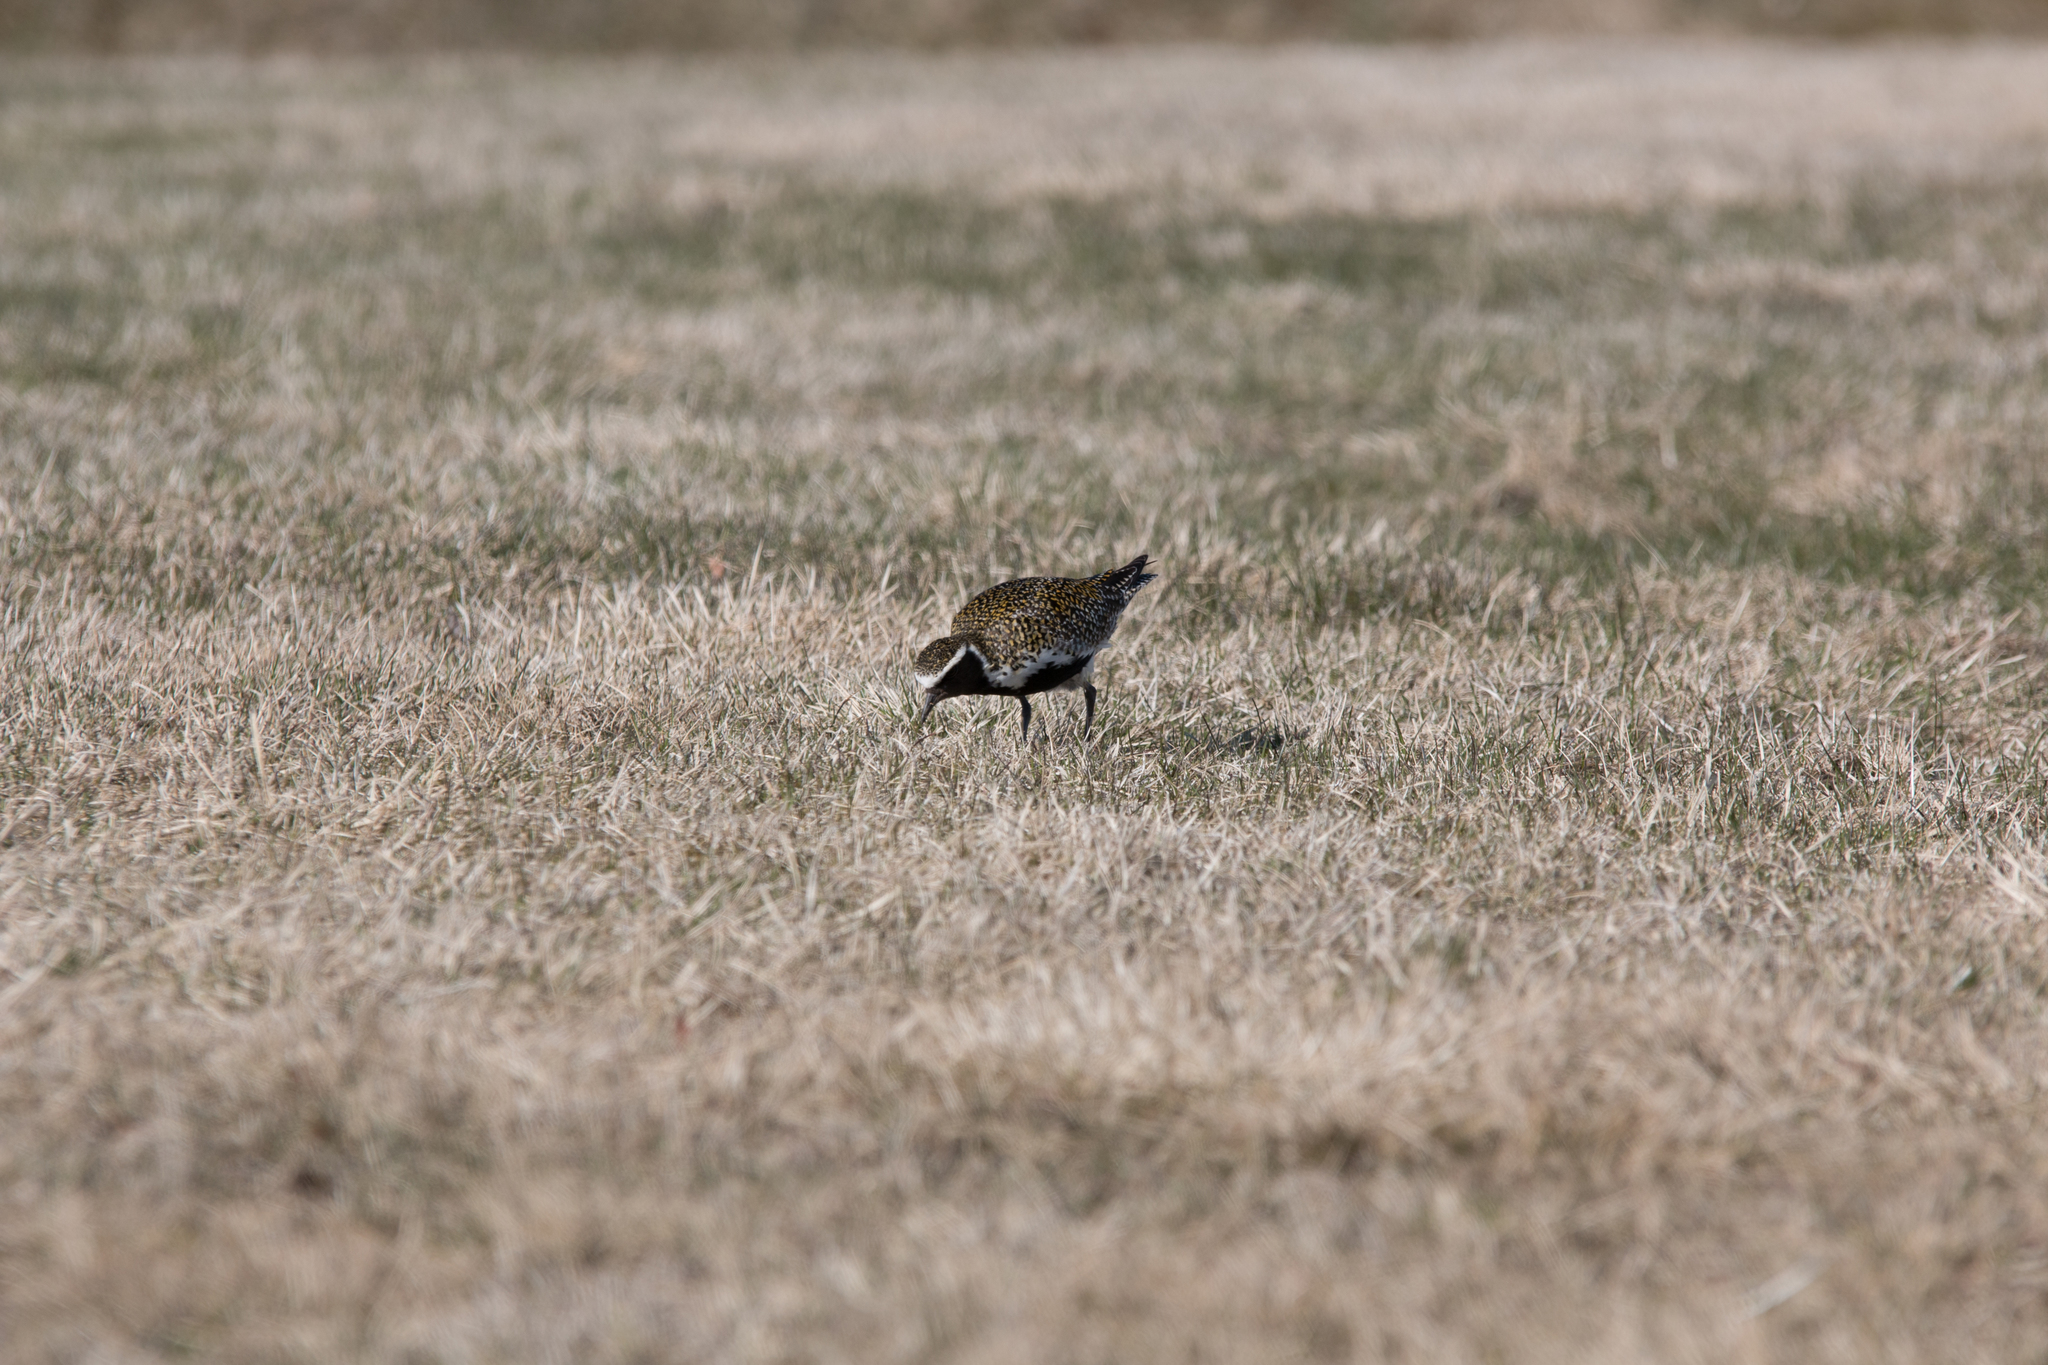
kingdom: Animalia
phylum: Chordata
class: Aves
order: Charadriiformes
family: Charadriidae
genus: Pluvialis
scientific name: Pluvialis apricaria
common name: European golden plover
